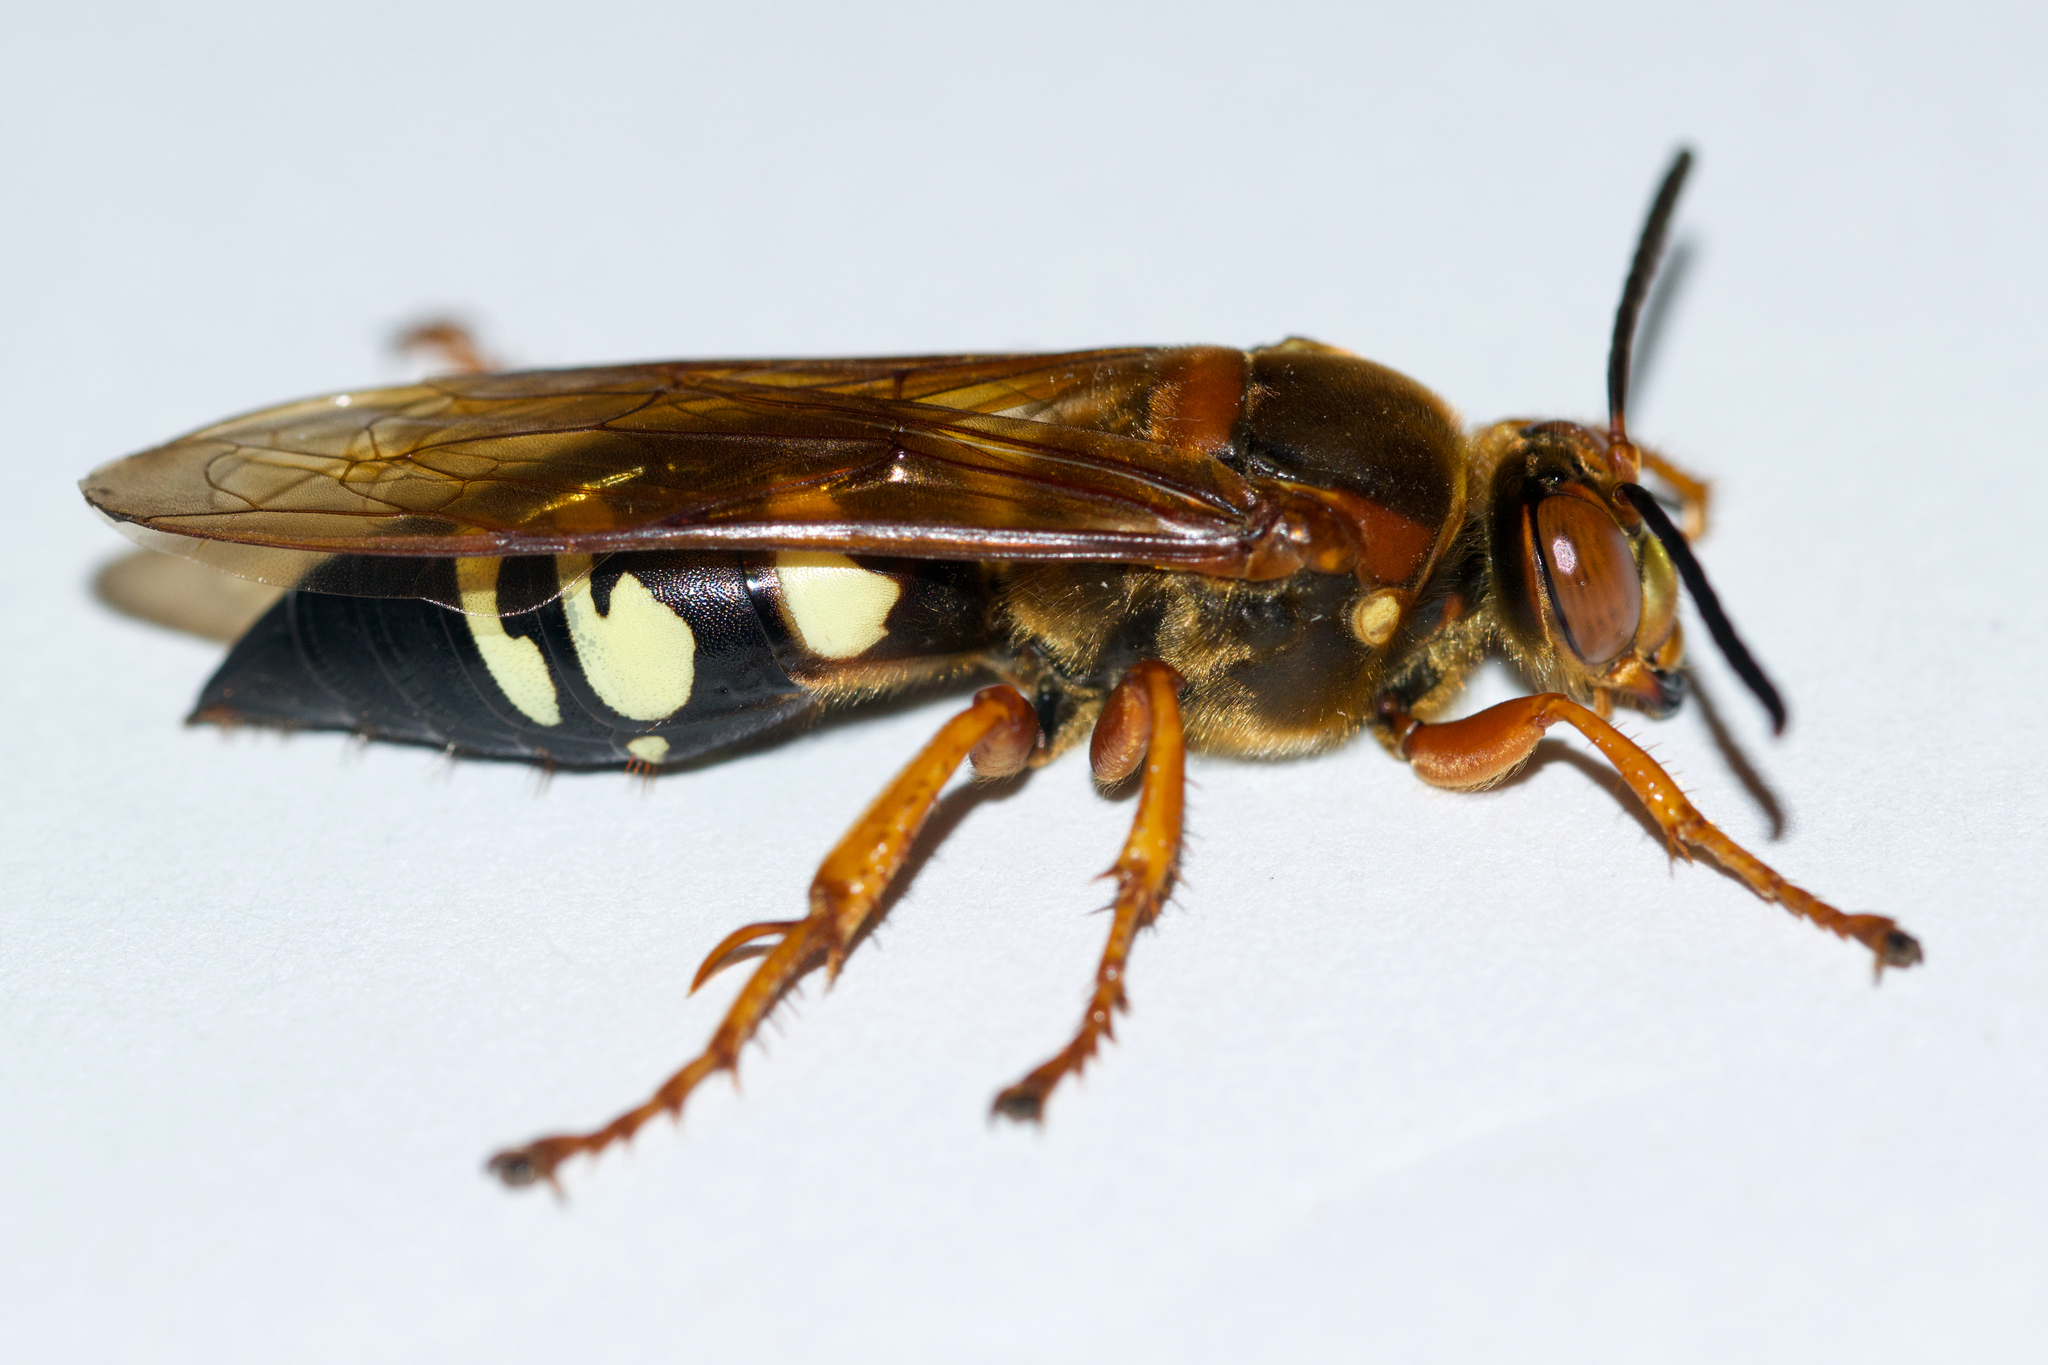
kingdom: Animalia
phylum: Arthropoda
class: Insecta
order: Hymenoptera
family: Crabronidae
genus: Sphecius
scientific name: Sphecius speciosus
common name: Cicada killer
